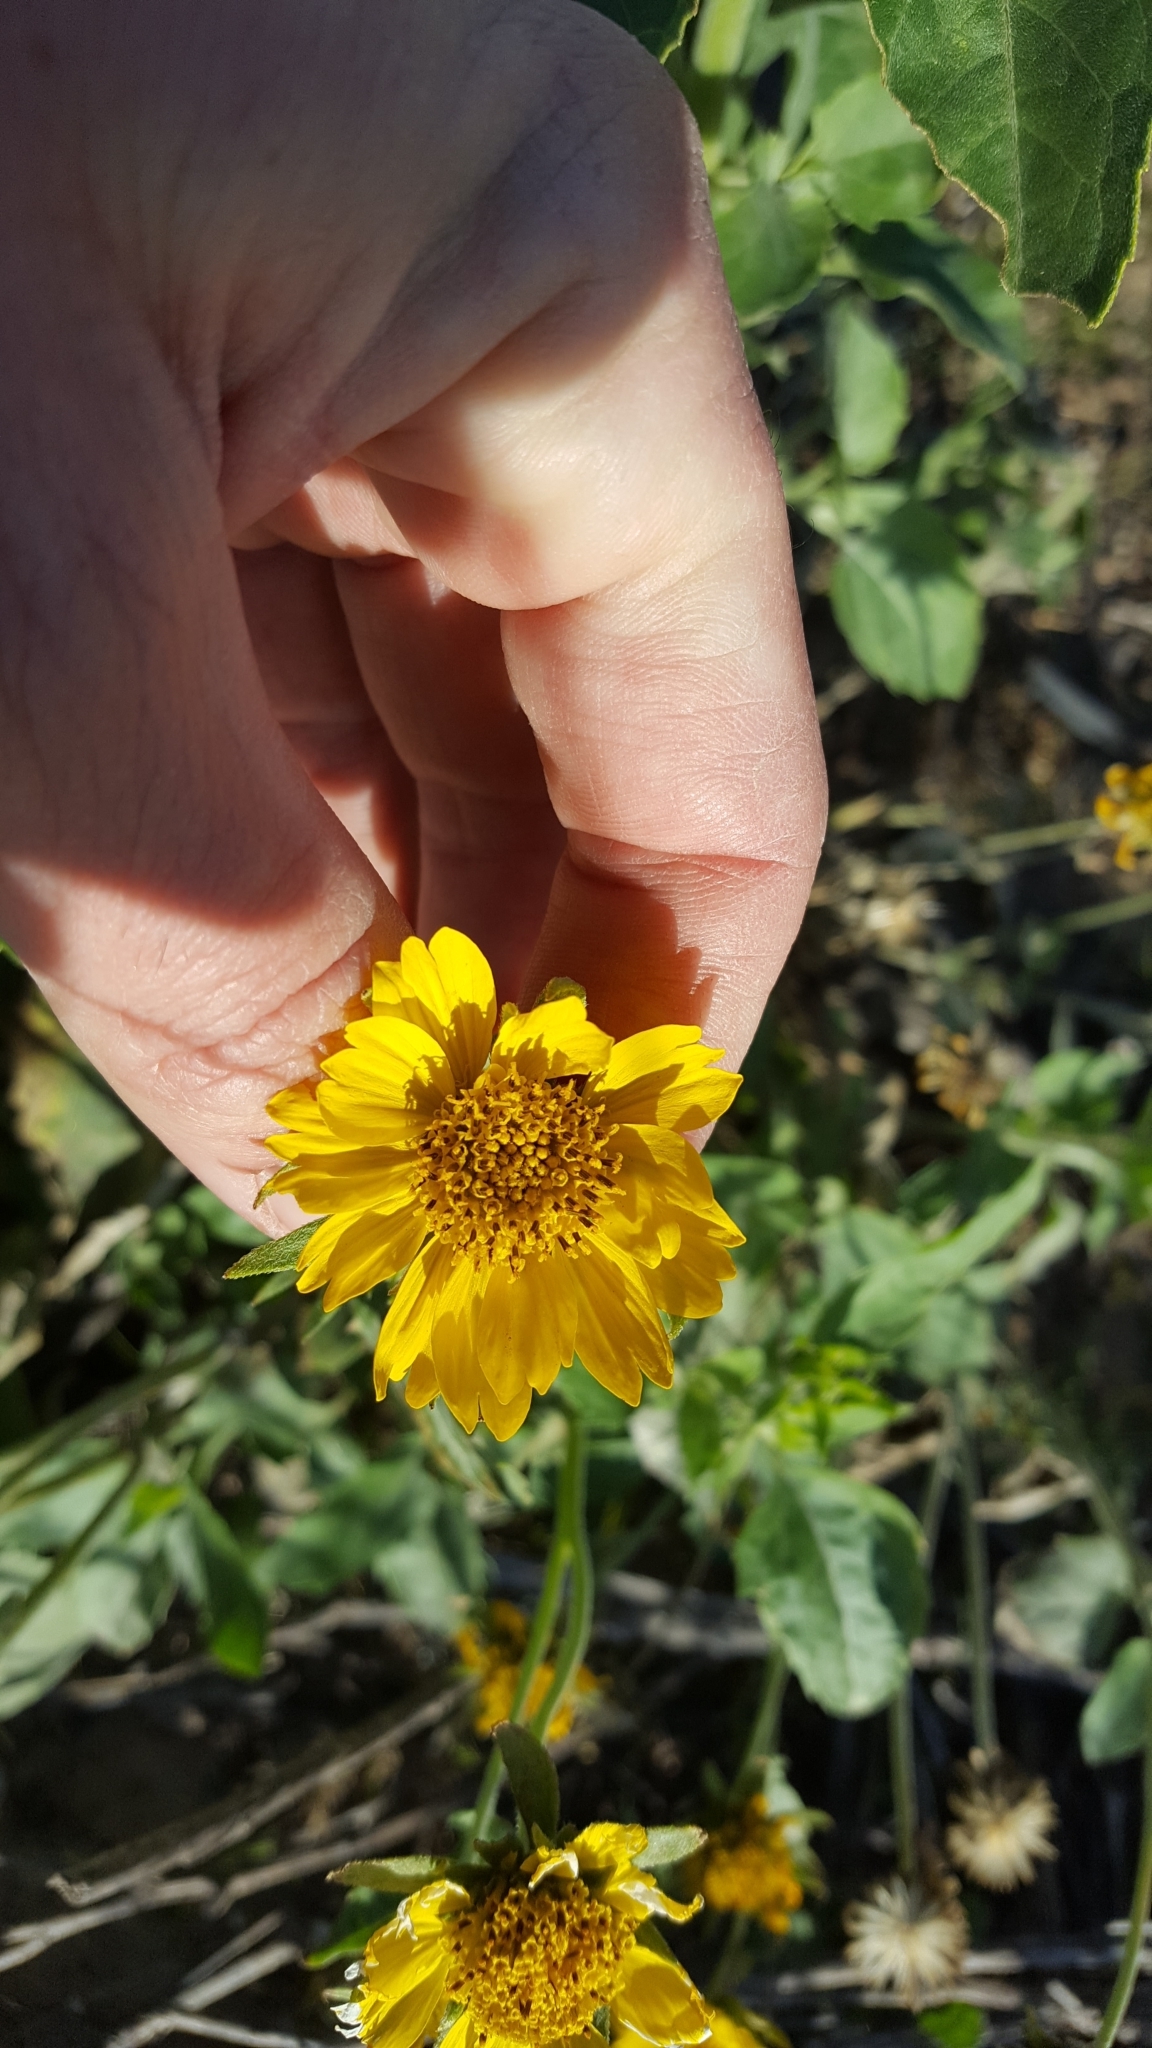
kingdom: Plantae
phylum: Tracheophyta
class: Magnoliopsida
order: Asterales
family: Asteraceae
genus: Verbesina
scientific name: Verbesina encelioides
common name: Golden crownbeard
